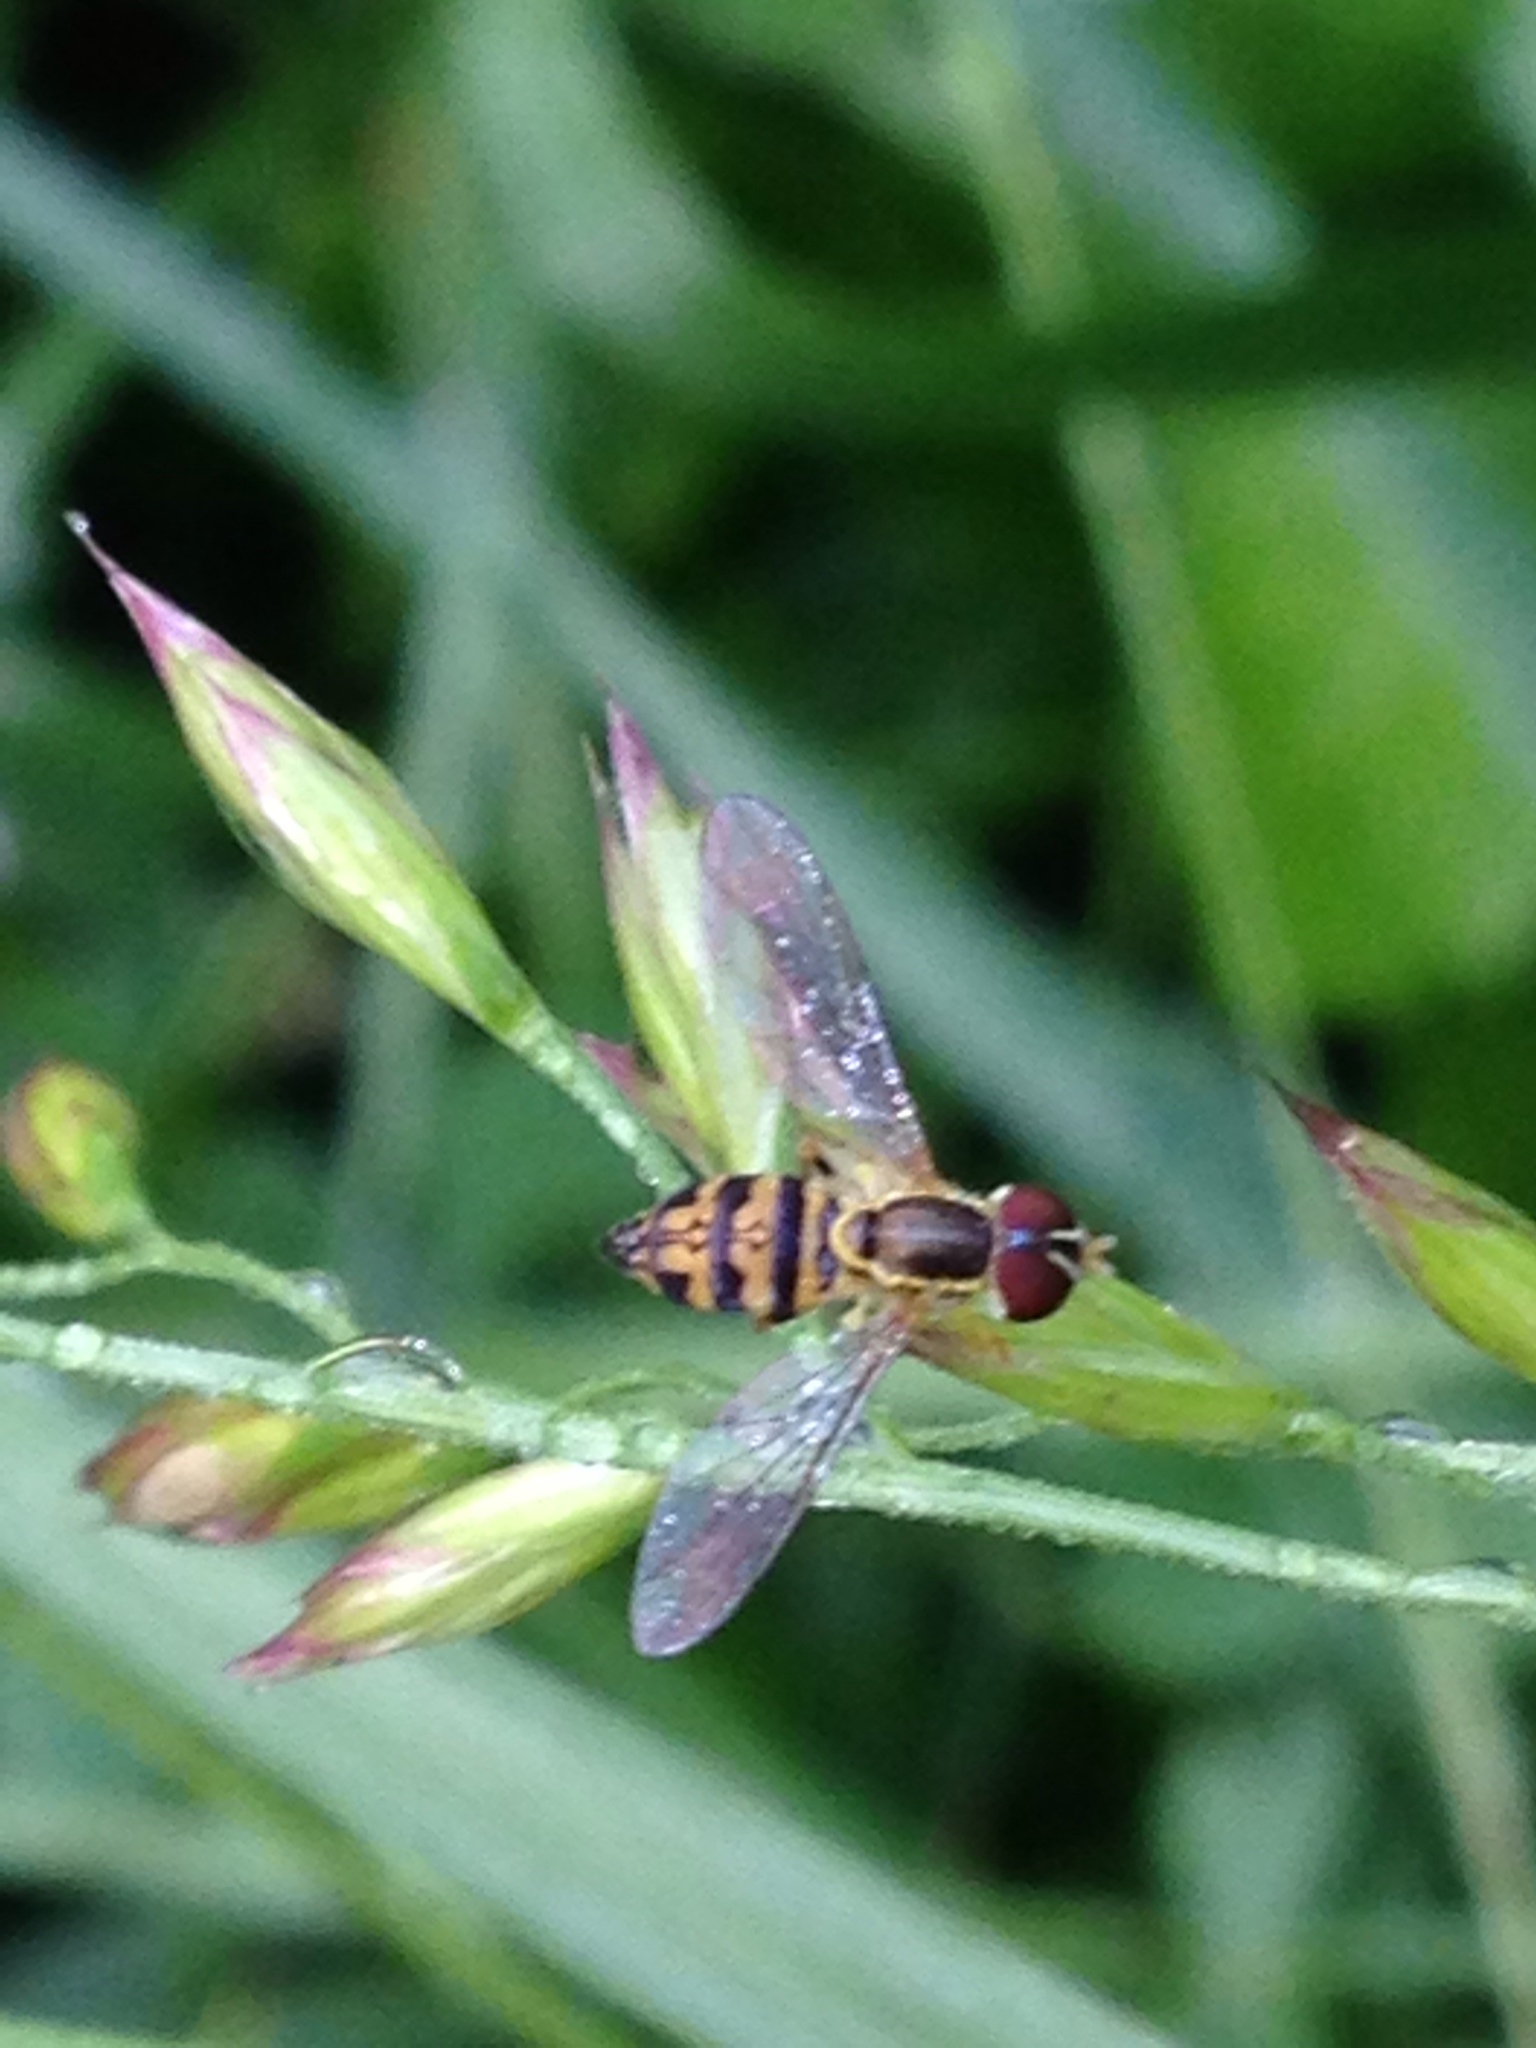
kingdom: Animalia
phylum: Arthropoda
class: Insecta
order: Diptera
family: Syrphidae
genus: Toxomerus
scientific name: Toxomerus geminatus
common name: Eastern calligrapher
